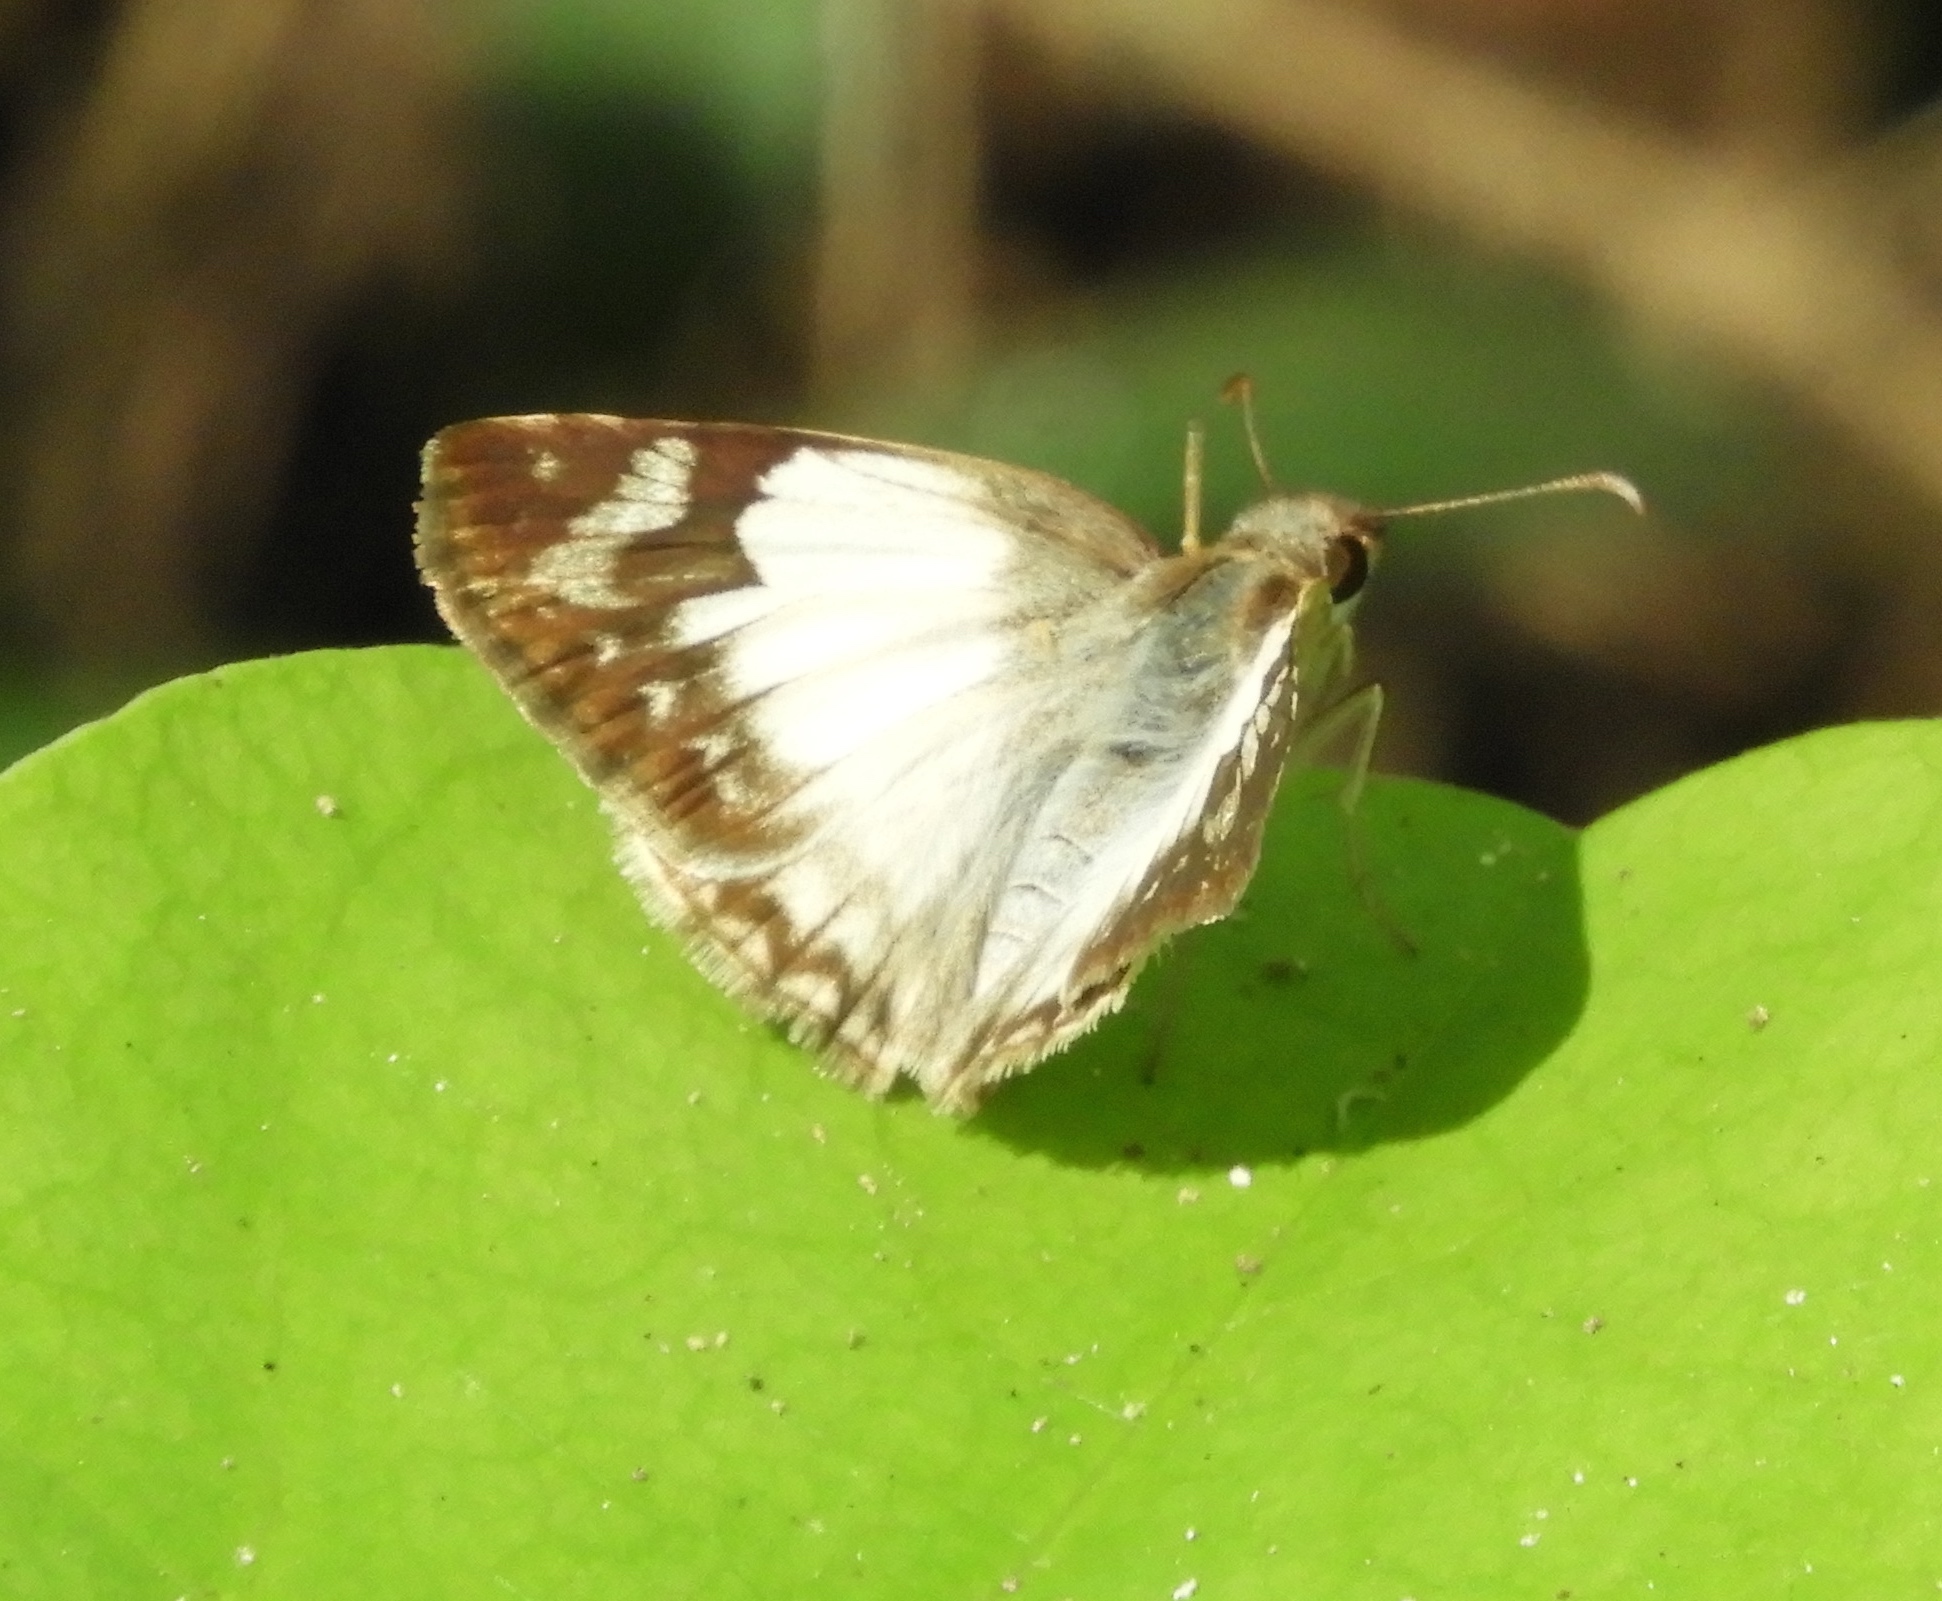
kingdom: Animalia
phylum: Arthropoda
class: Insecta
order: Lepidoptera
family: Hesperiidae
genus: Heliopetes
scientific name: Heliopetes laviana
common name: Laviana white-skipper
